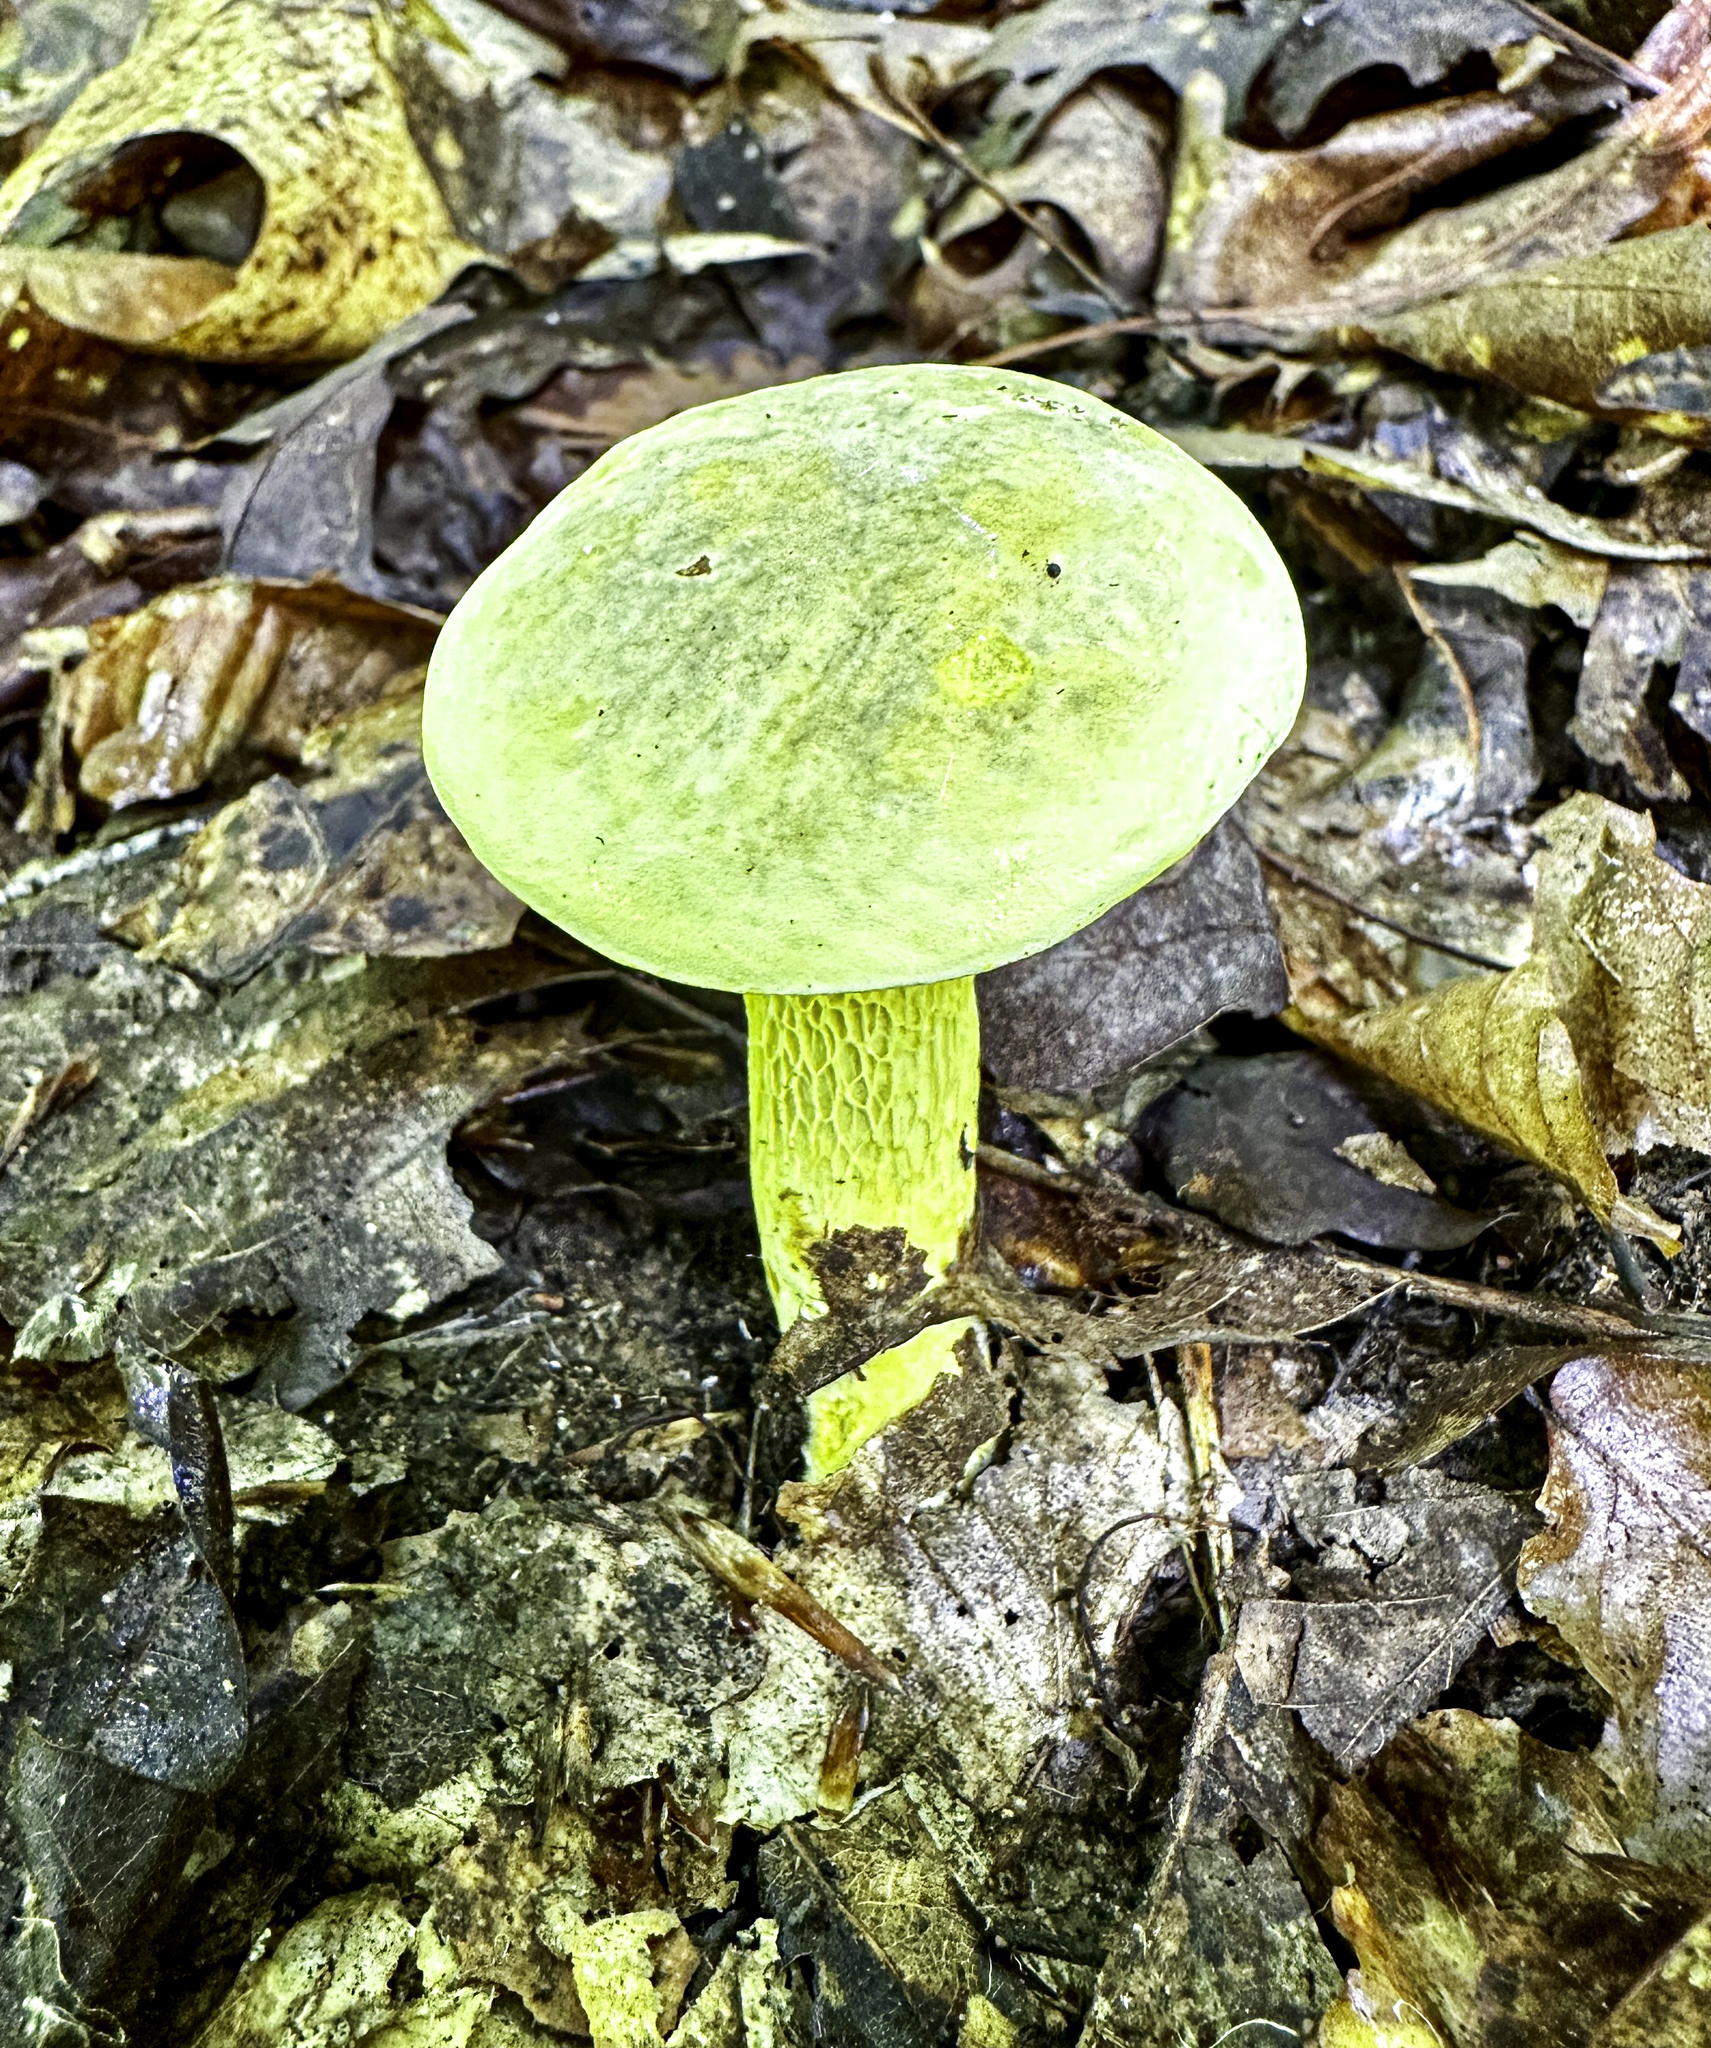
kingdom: Fungi
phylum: Basidiomycota
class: Agaricomycetes
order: Boletales
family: Boletaceae
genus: Retiboletus
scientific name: Retiboletus ornatipes
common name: Ornate-stalked bolete
